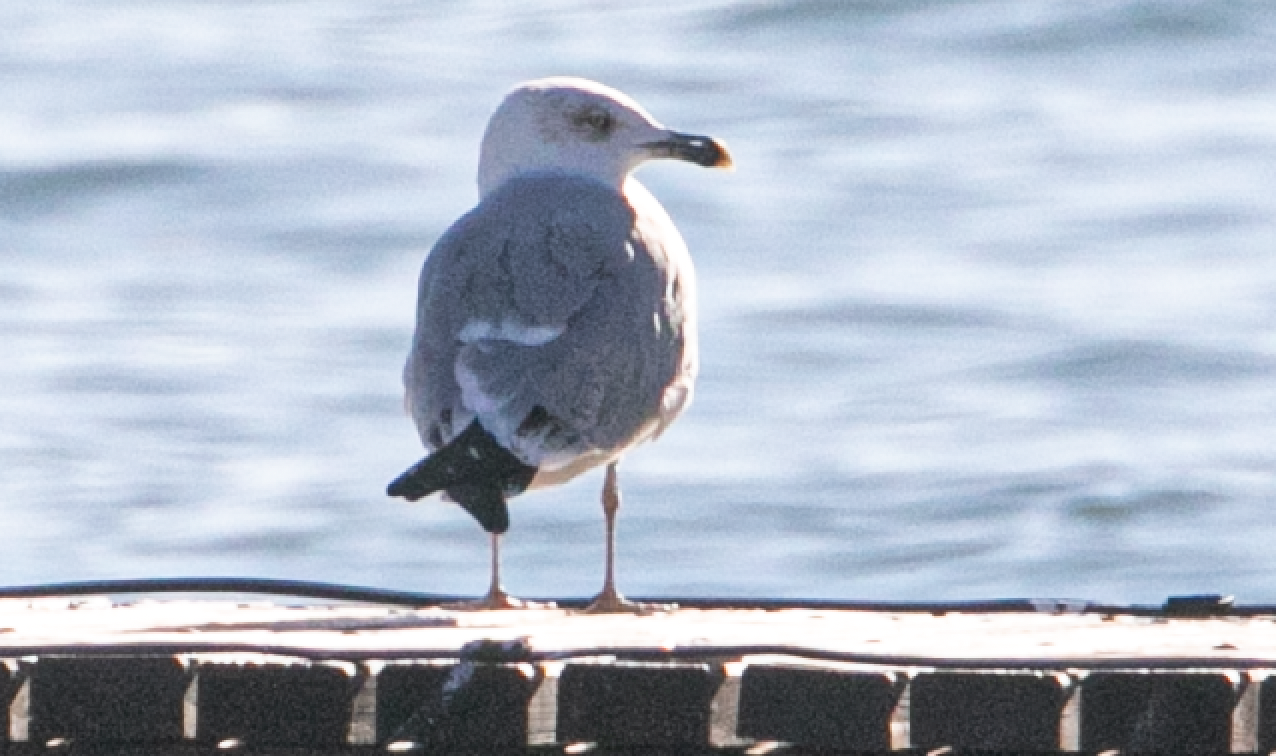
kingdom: Animalia
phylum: Chordata
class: Aves
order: Charadriiformes
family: Laridae
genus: Larus
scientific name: Larus michahellis
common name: Yellow-legged gull
